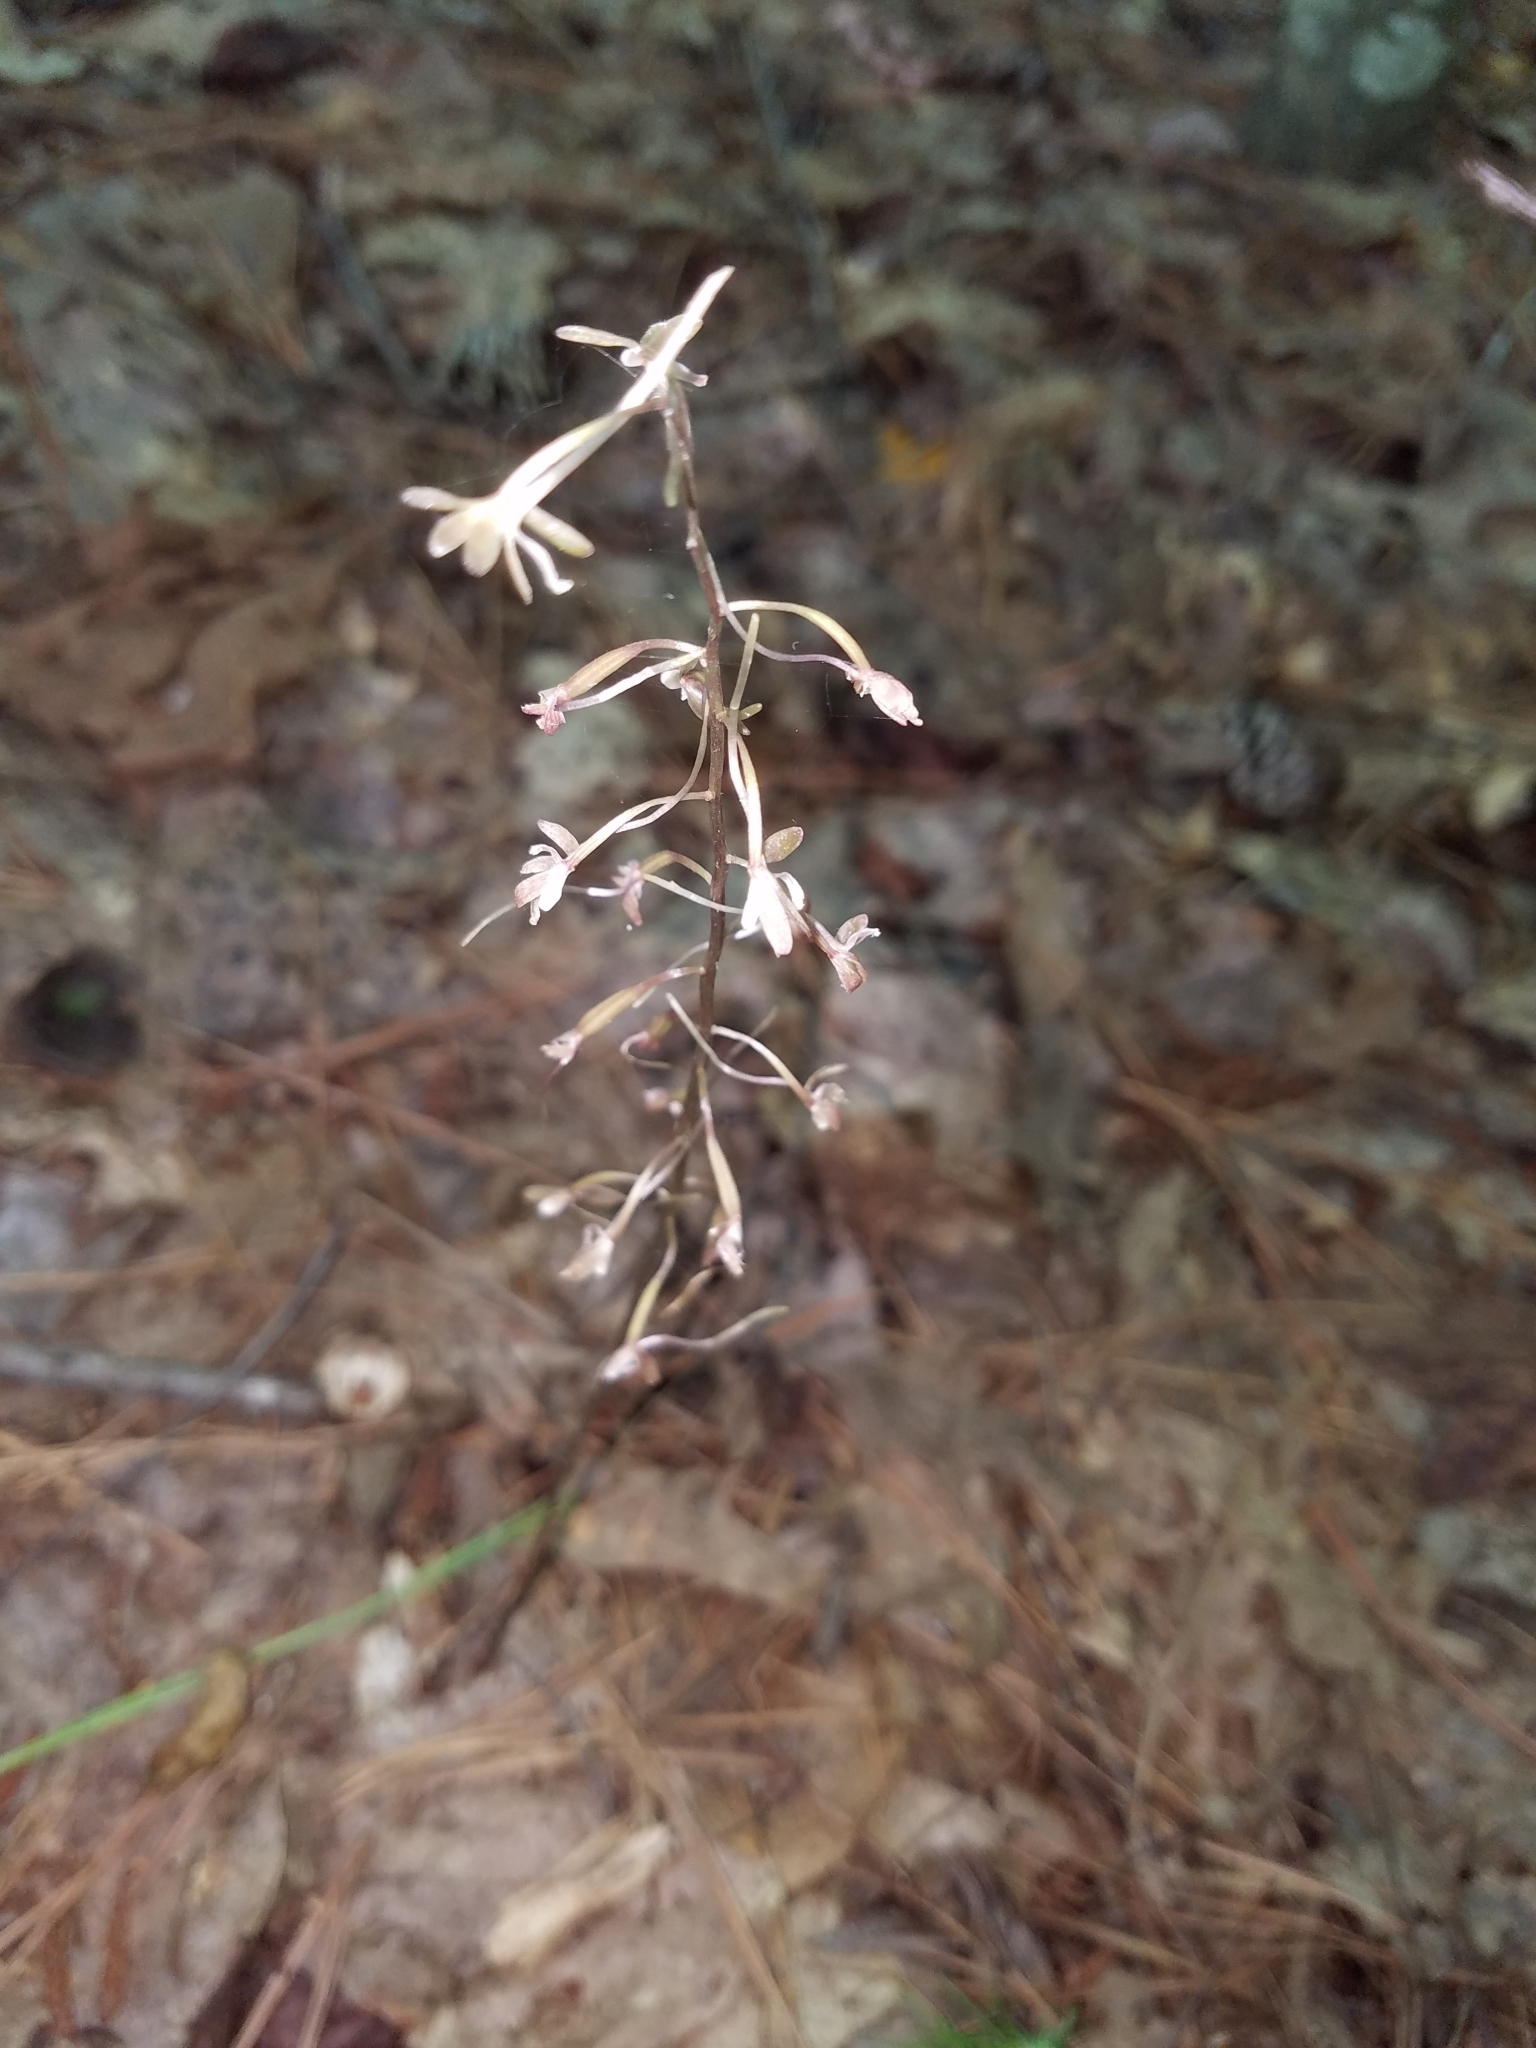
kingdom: Plantae
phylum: Tracheophyta
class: Liliopsida
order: Asparagales
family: Orchidaceae
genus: Tipularia
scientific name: Tipularia discolor
